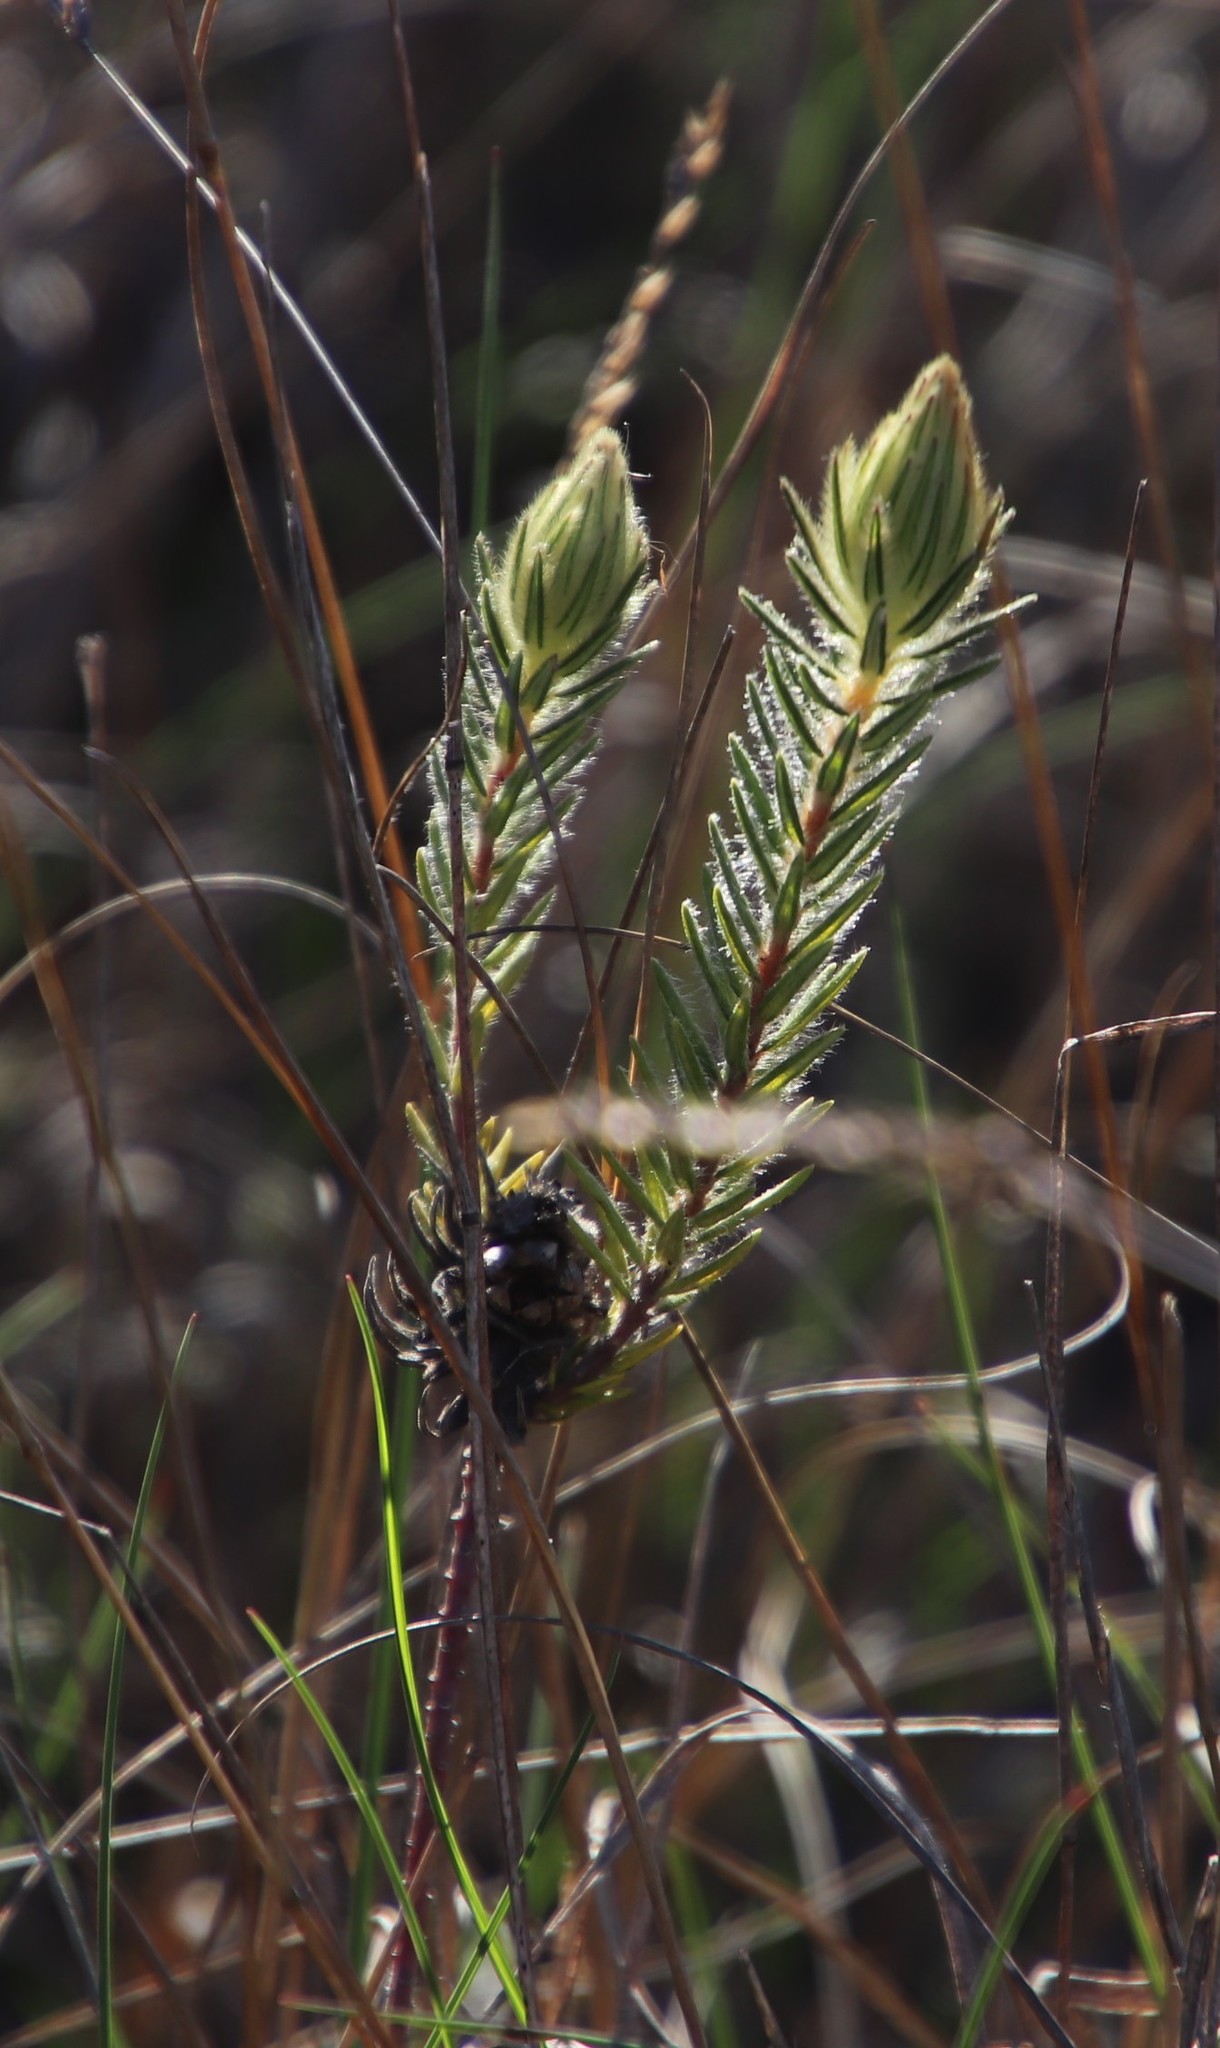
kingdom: Plantae
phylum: Tracheophyta
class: Magnoliopsida
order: Rosales
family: Rhamnaceae
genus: Phylica
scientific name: Phylica pubescens
